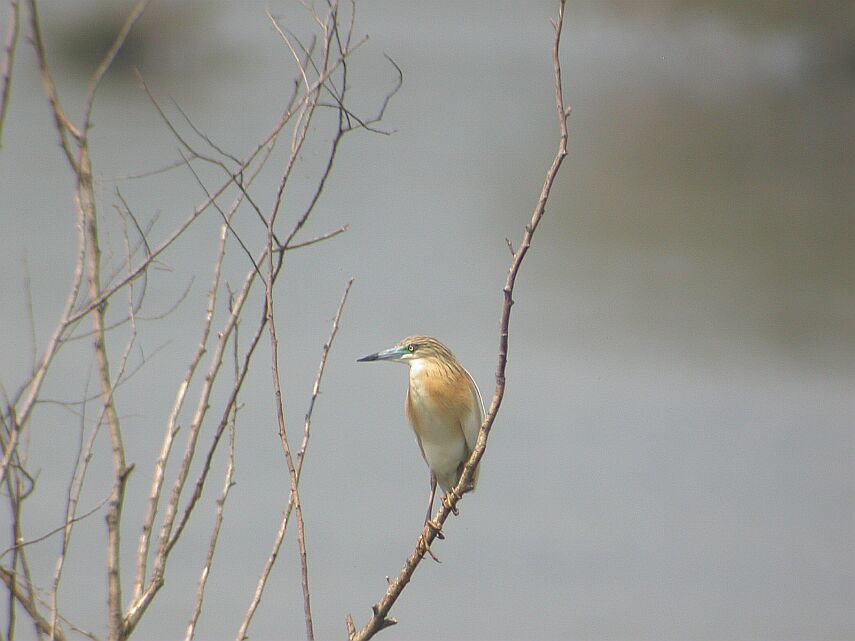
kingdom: Animalia
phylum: Chordata
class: Aves
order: Pelecaniformes
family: Ardeidae
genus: Ardeola
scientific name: Ardeola ralloides
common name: Squacco heron
